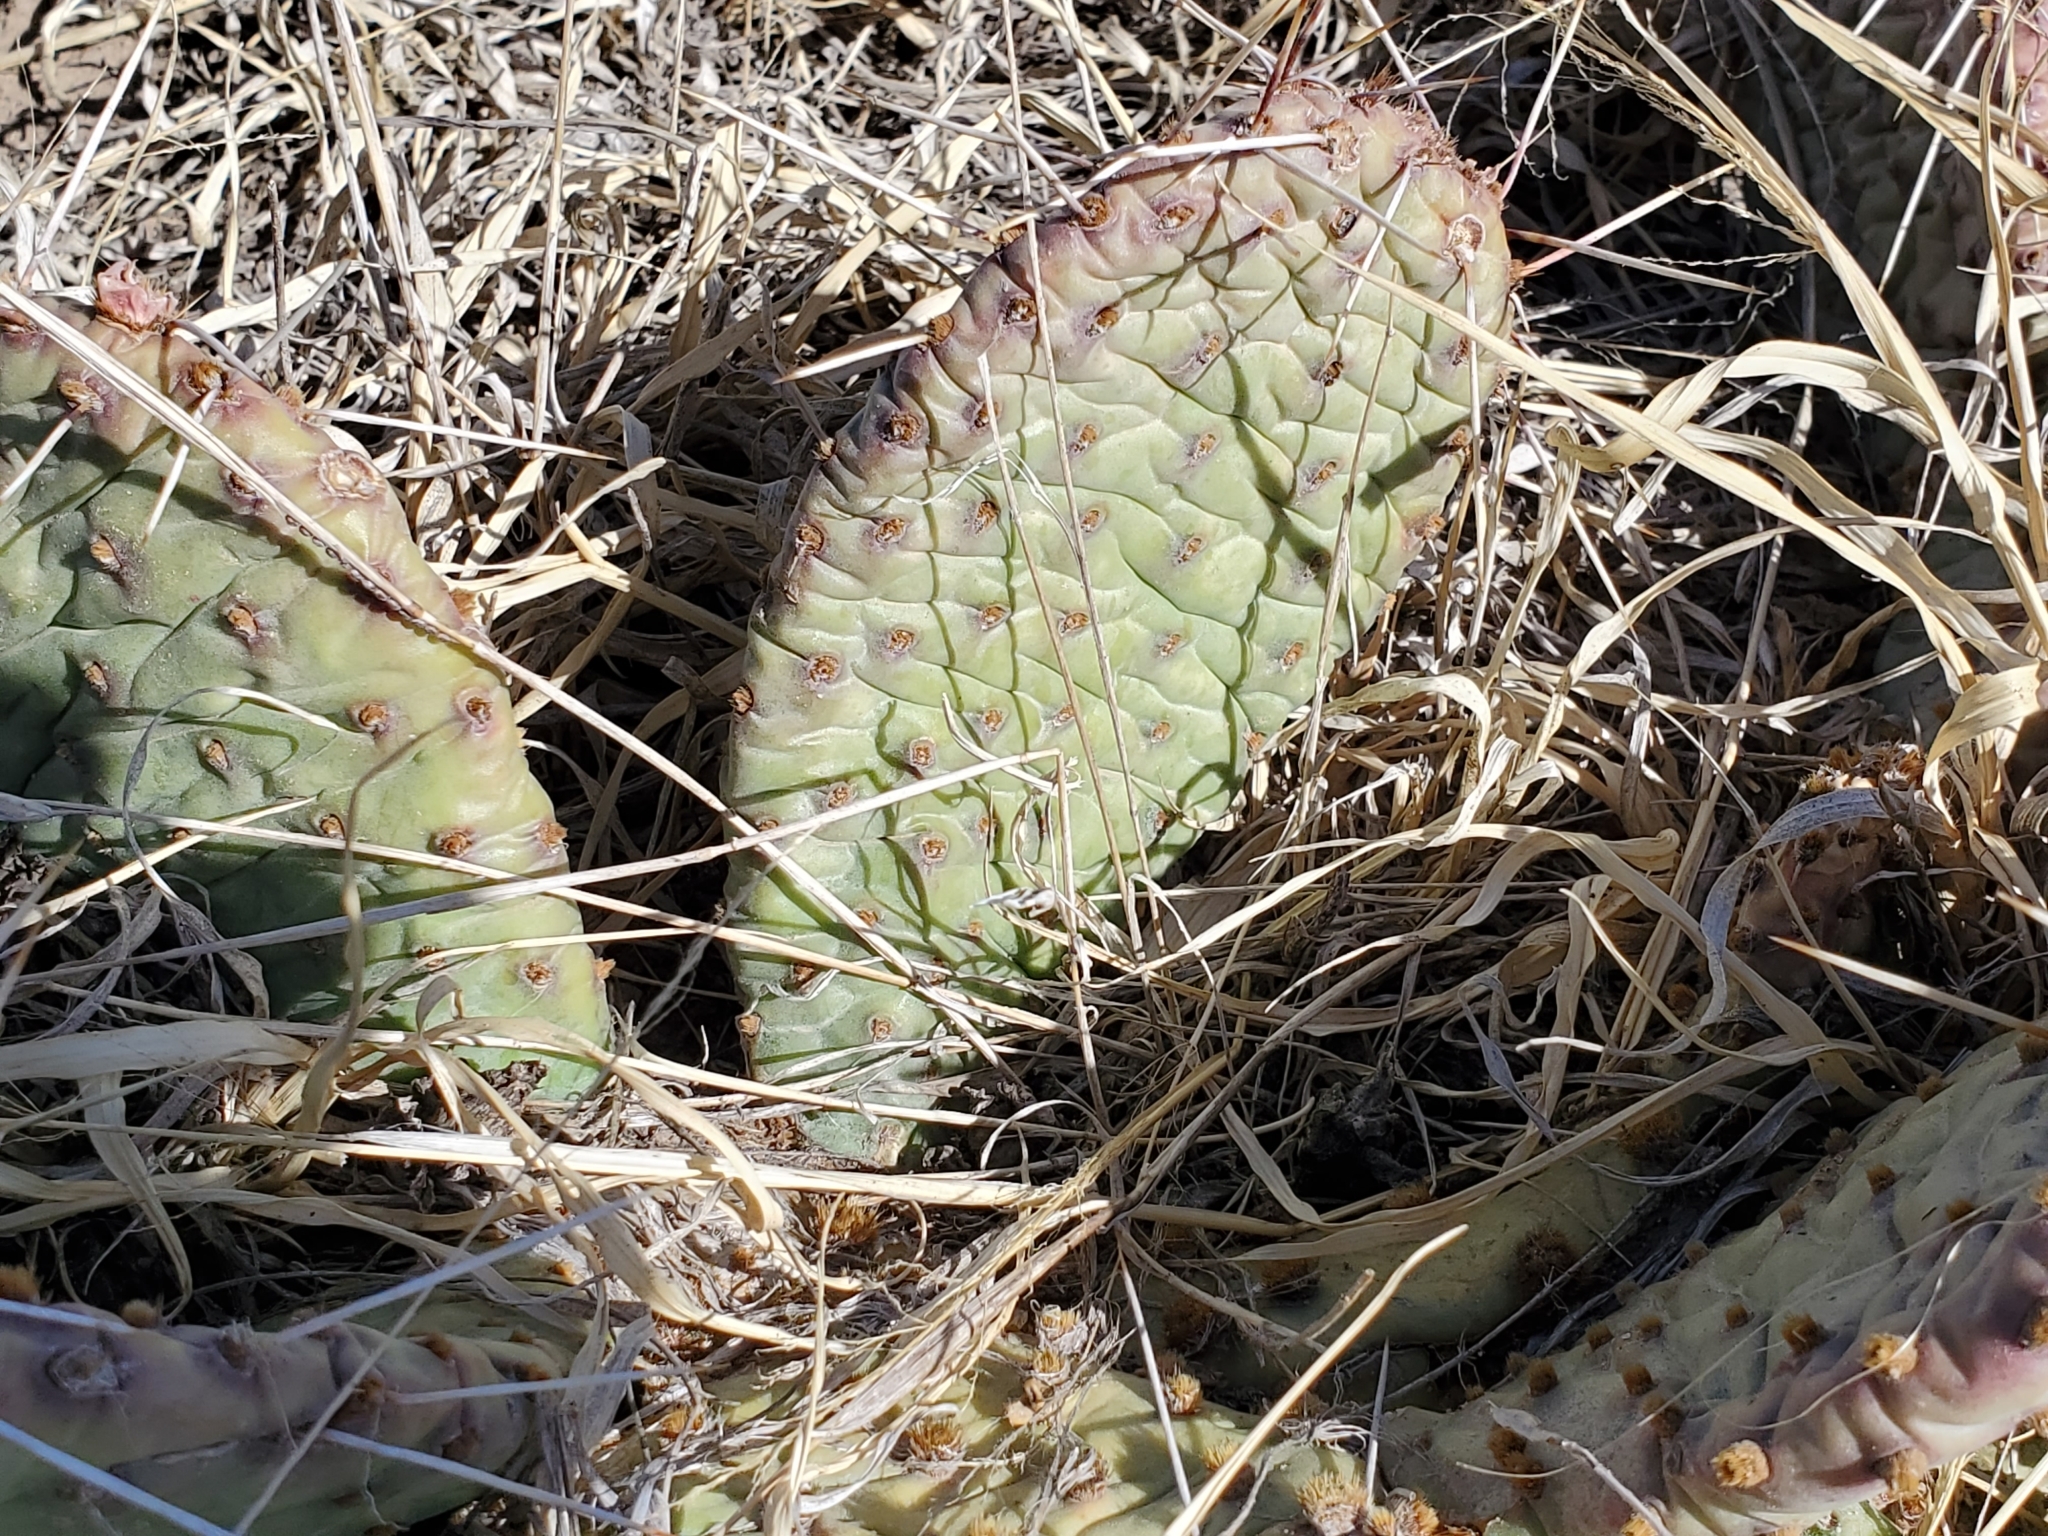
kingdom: Plantae
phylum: Tracheophyta
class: Magnoliopsida
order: Caryophyllales
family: Cactaceae
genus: Opuntia
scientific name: Opuntia macrorhiza
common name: Grassland pricklypear
